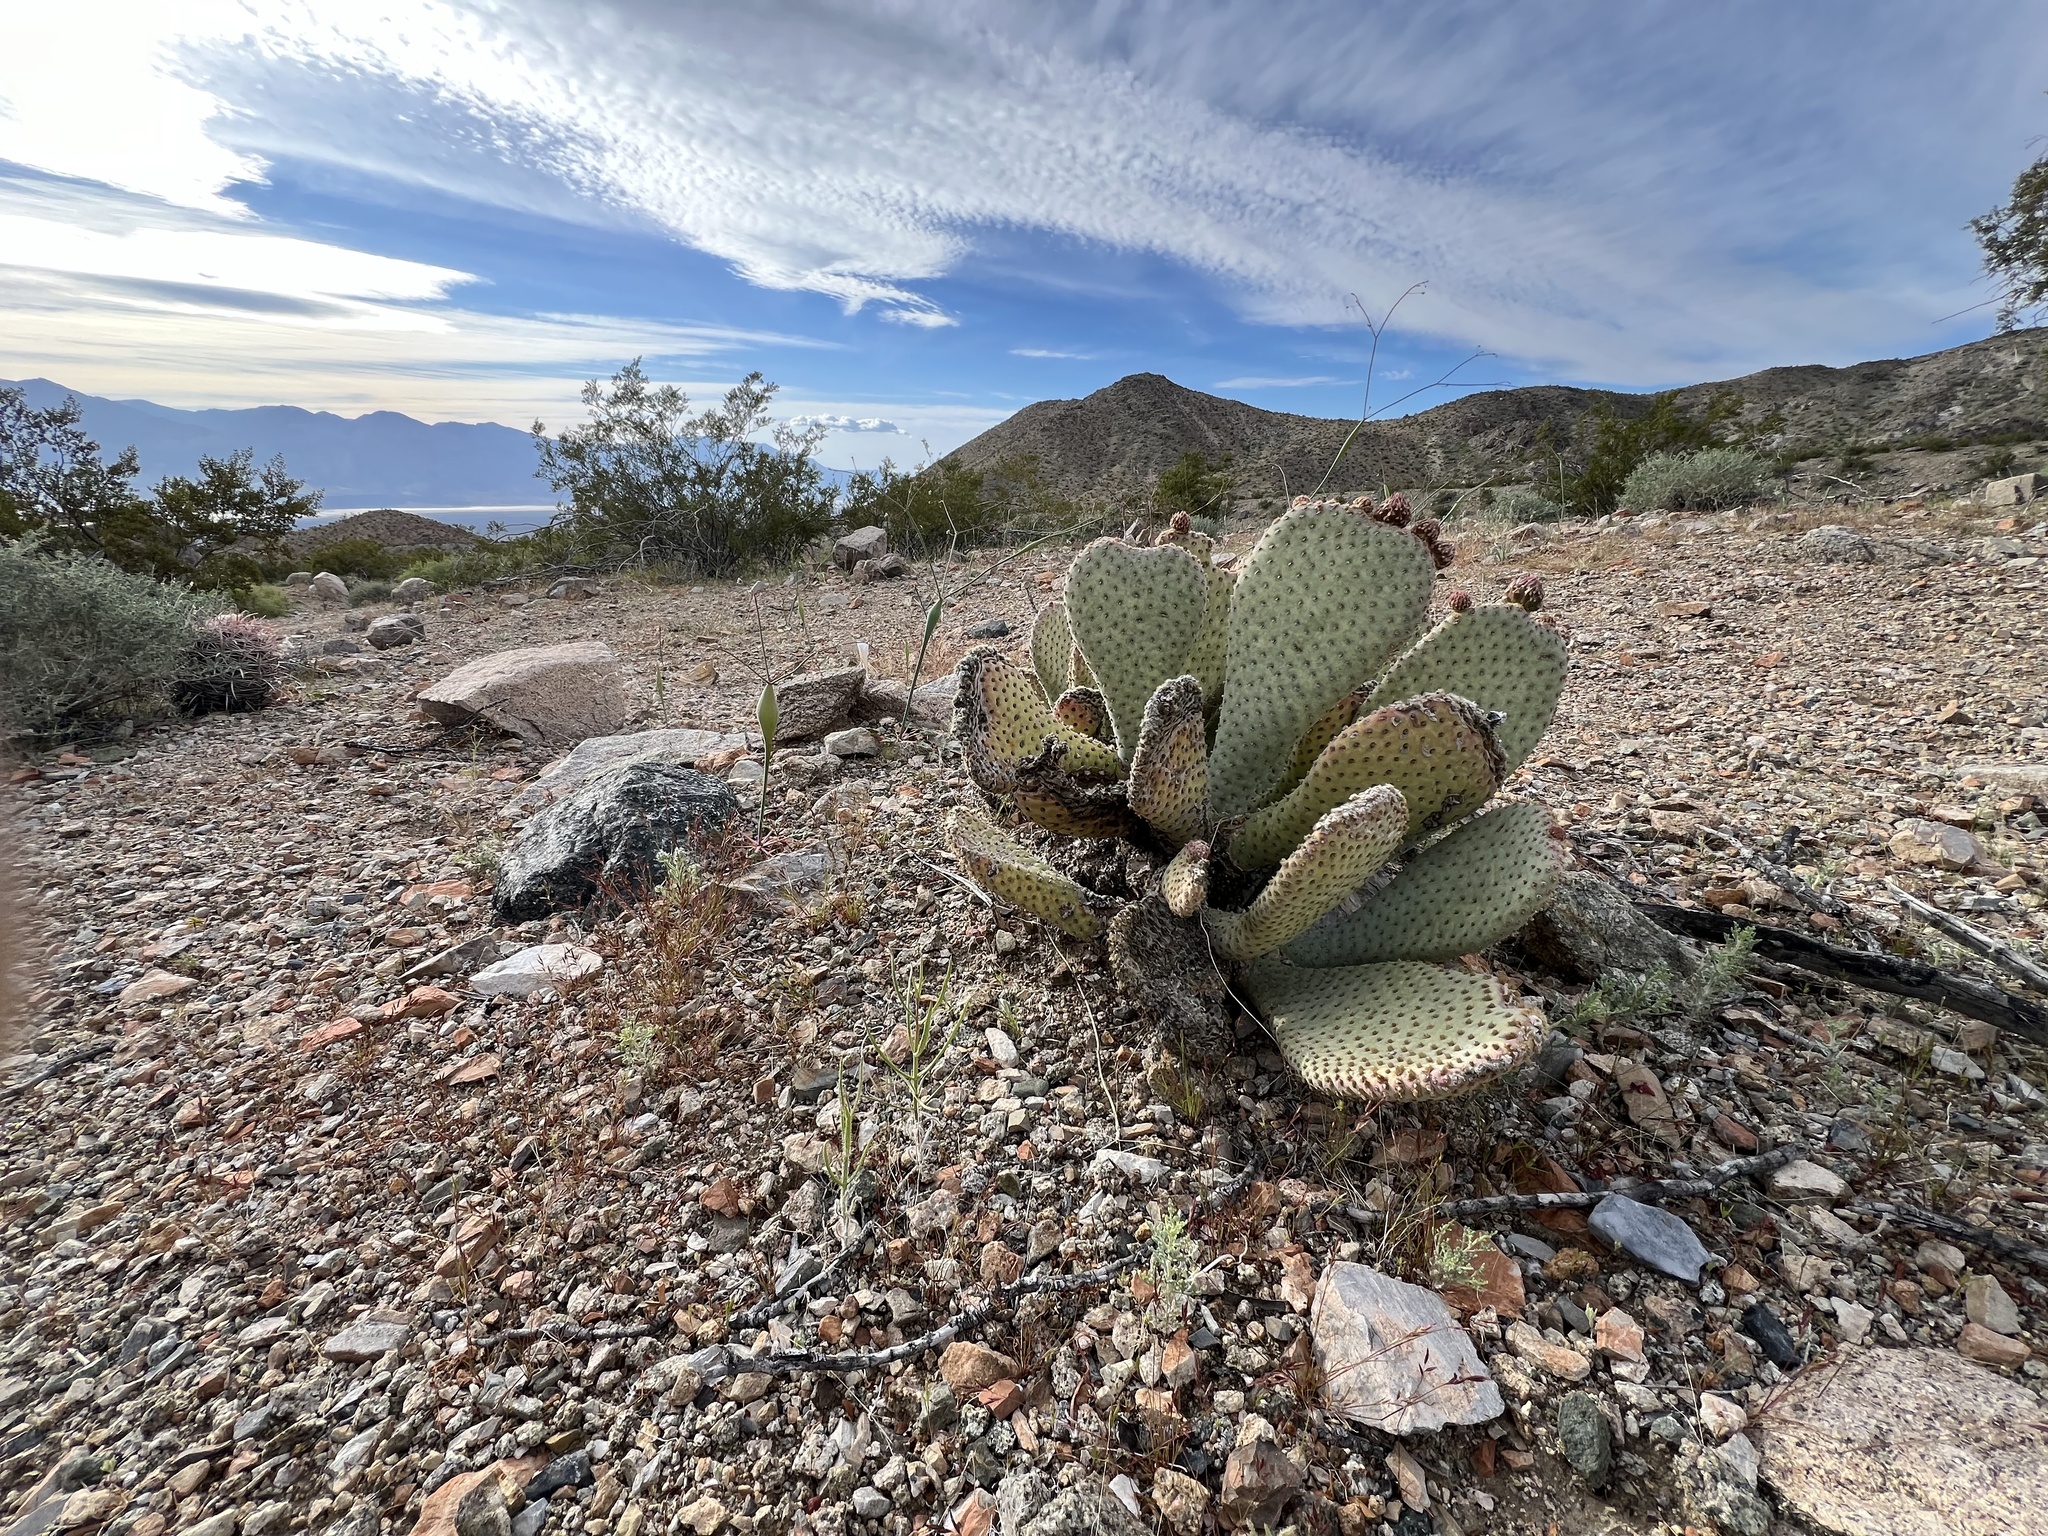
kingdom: Plantae
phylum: Tracheophyta
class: Magnoliopsida
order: Caryophyllales
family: Cactaceae
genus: Opuntia
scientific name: Opuntia basilaris
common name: Beavertail prickly-pear
